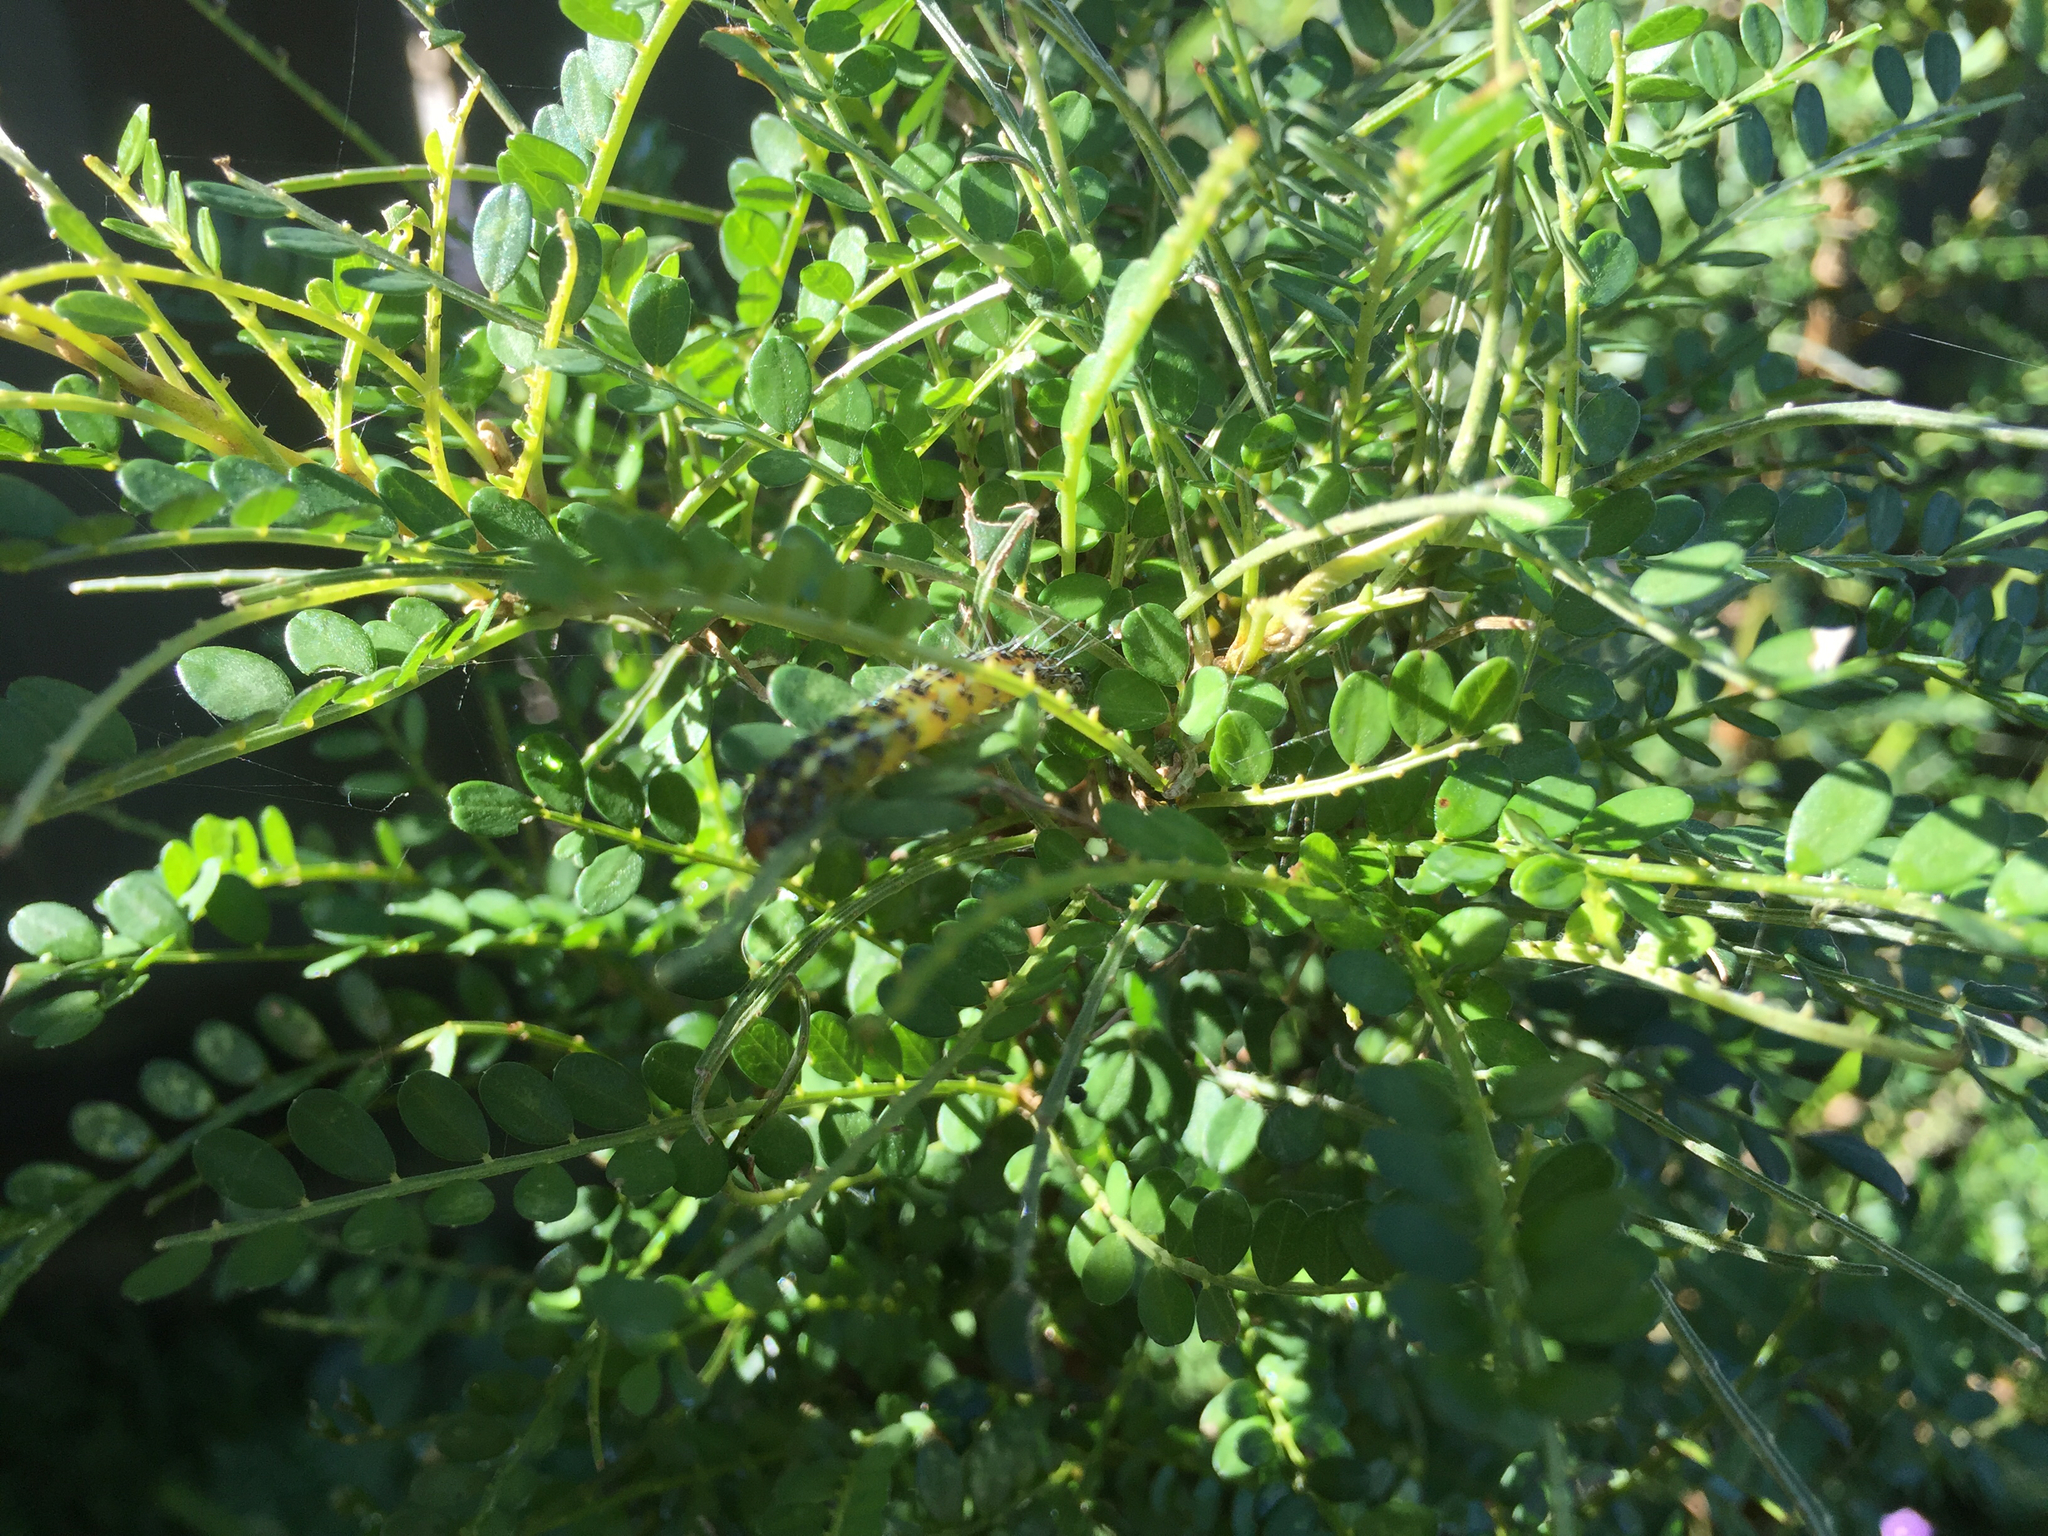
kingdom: Animalia
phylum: Arthropoda
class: Insecta
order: Lepidoptera
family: Crambidae
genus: Uresiphita
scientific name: Uresiphita
